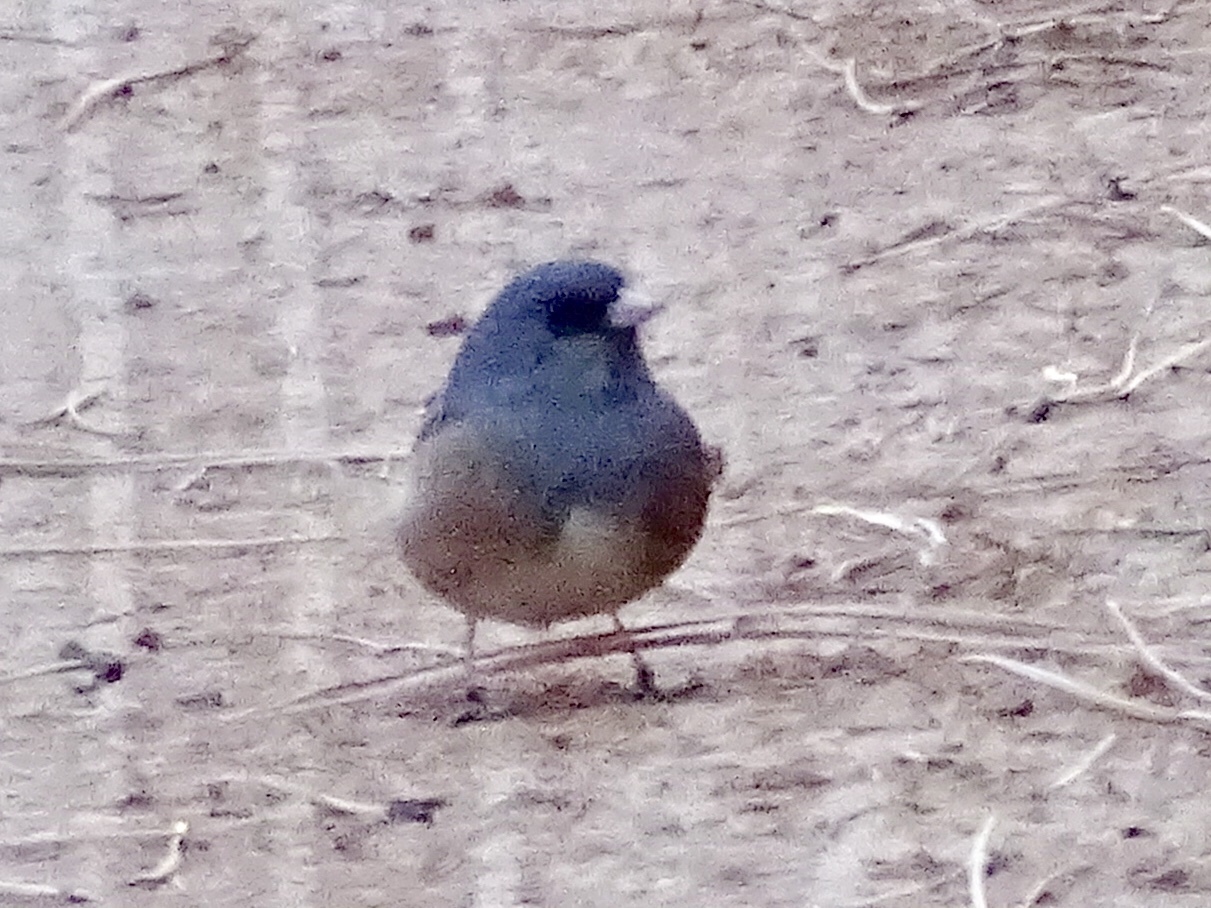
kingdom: Animalia
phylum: Chordata
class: Aves
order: Passeriformes
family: Passerellidae
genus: Junco
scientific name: Junco hyemalis
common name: Dark-eyed junco
